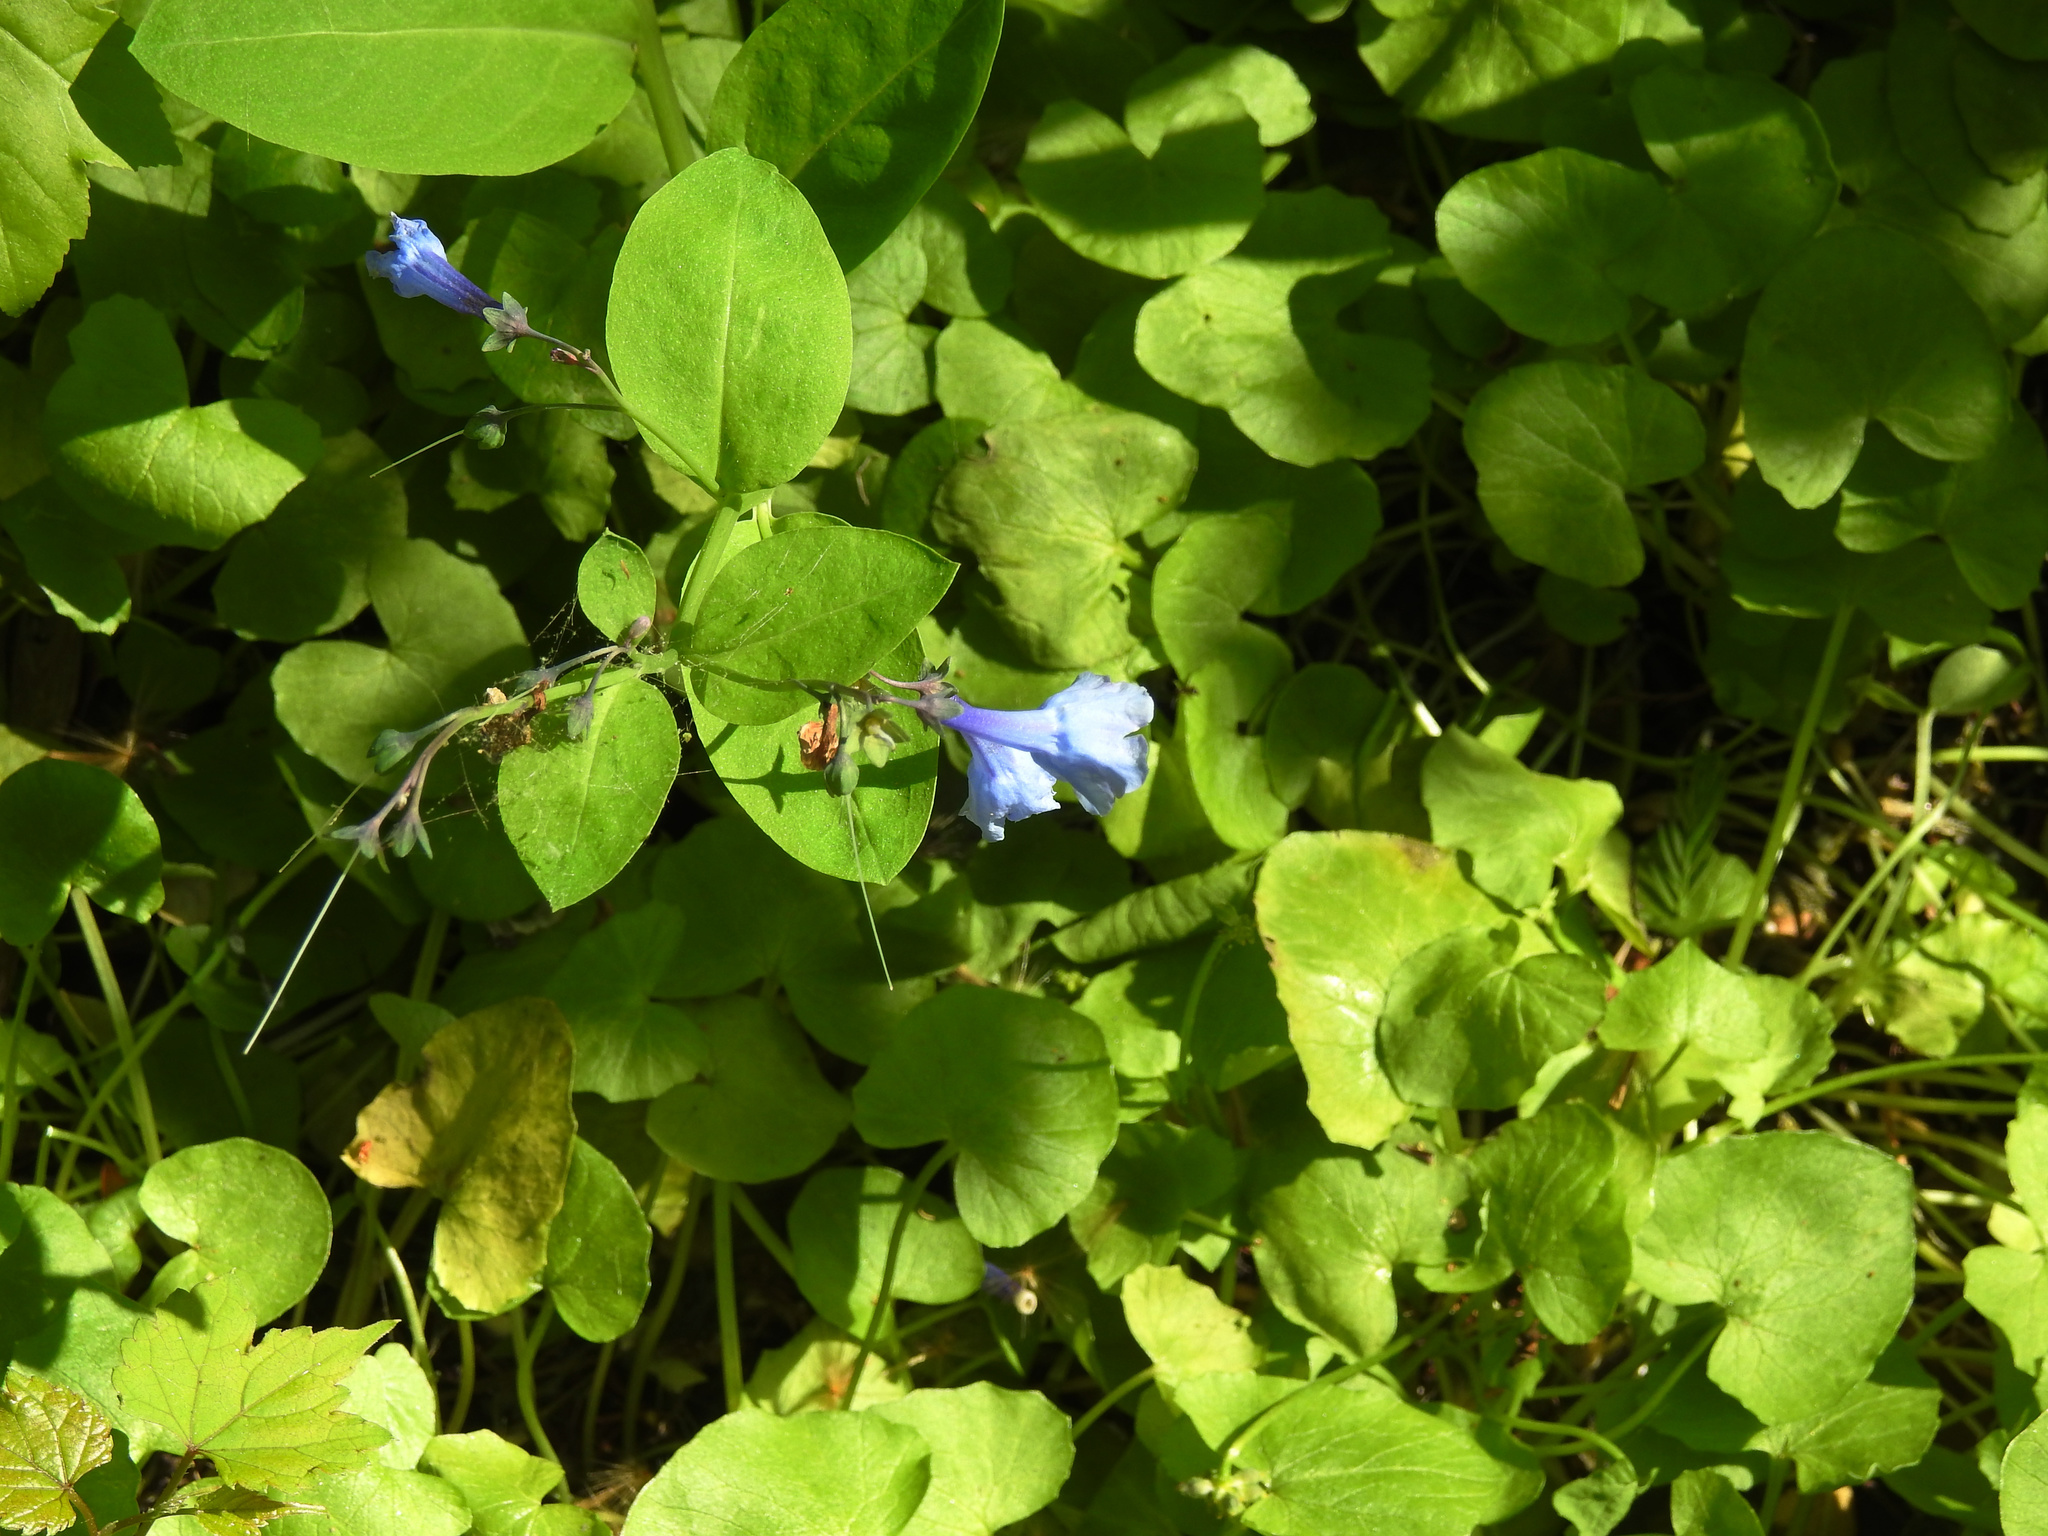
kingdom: Plantae
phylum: Tracheophyta
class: Magnoliopsida
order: Boraginales
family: Boraginaceae
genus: Mertensia
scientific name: Mertensia virginica
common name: Virginia bluebells
